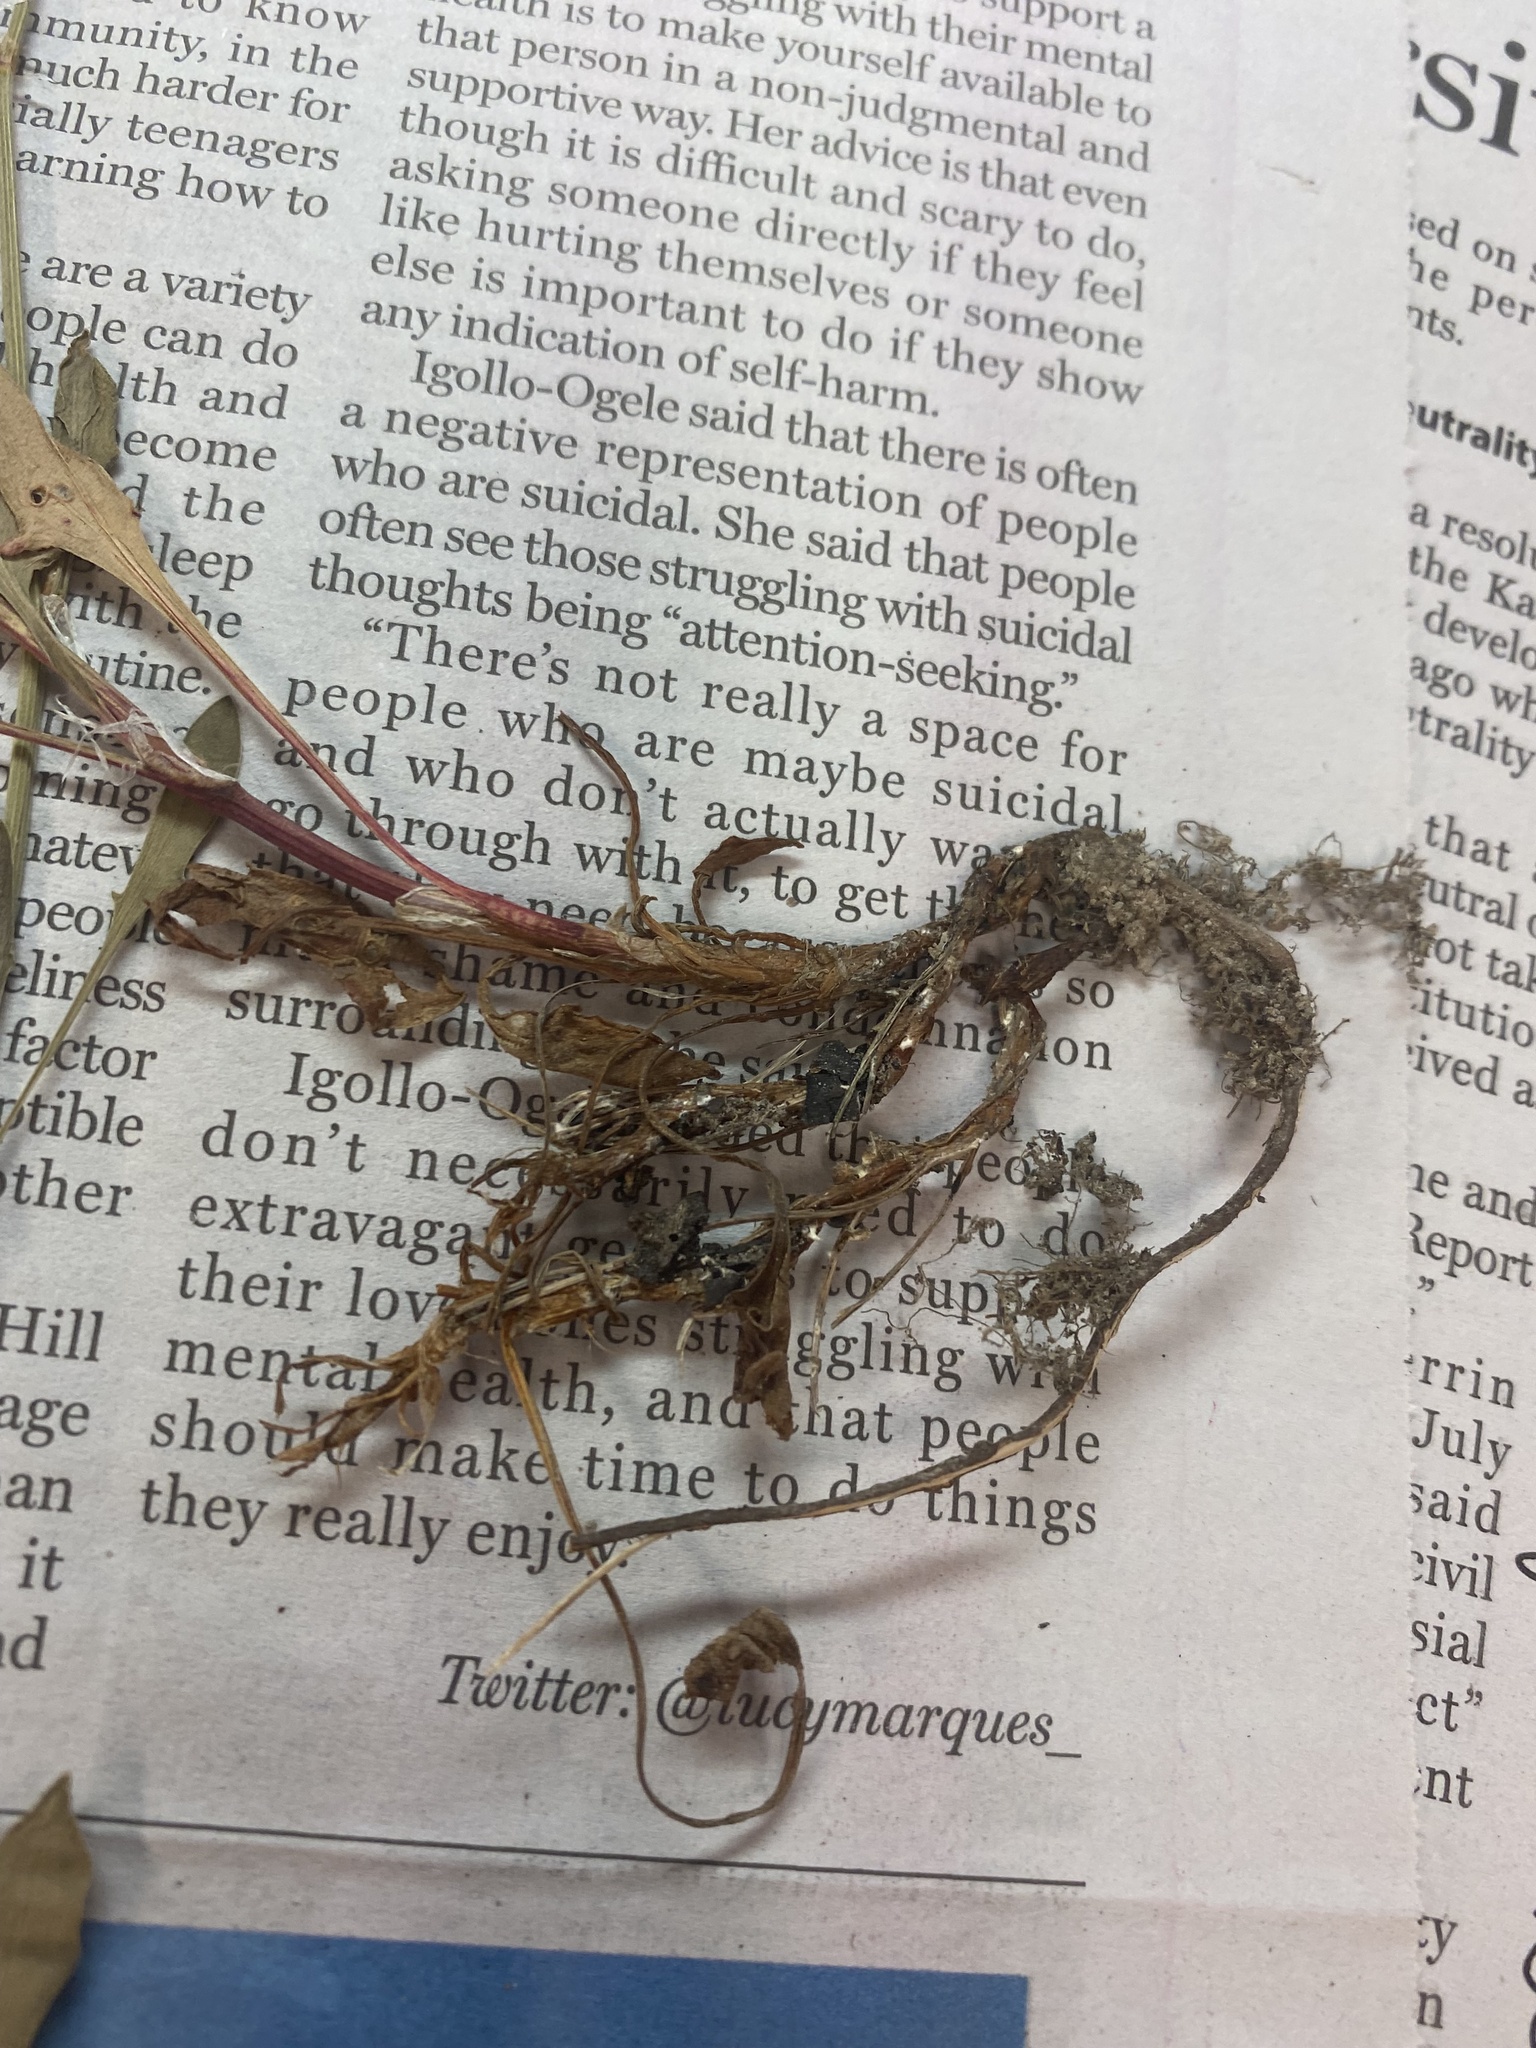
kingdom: Plantae
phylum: Tracheophyta
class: Magnoliopsida
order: Caryophyllales
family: Polygonaceae
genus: Rumex
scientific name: Rumex acetosella
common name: Common sheep sorrel
